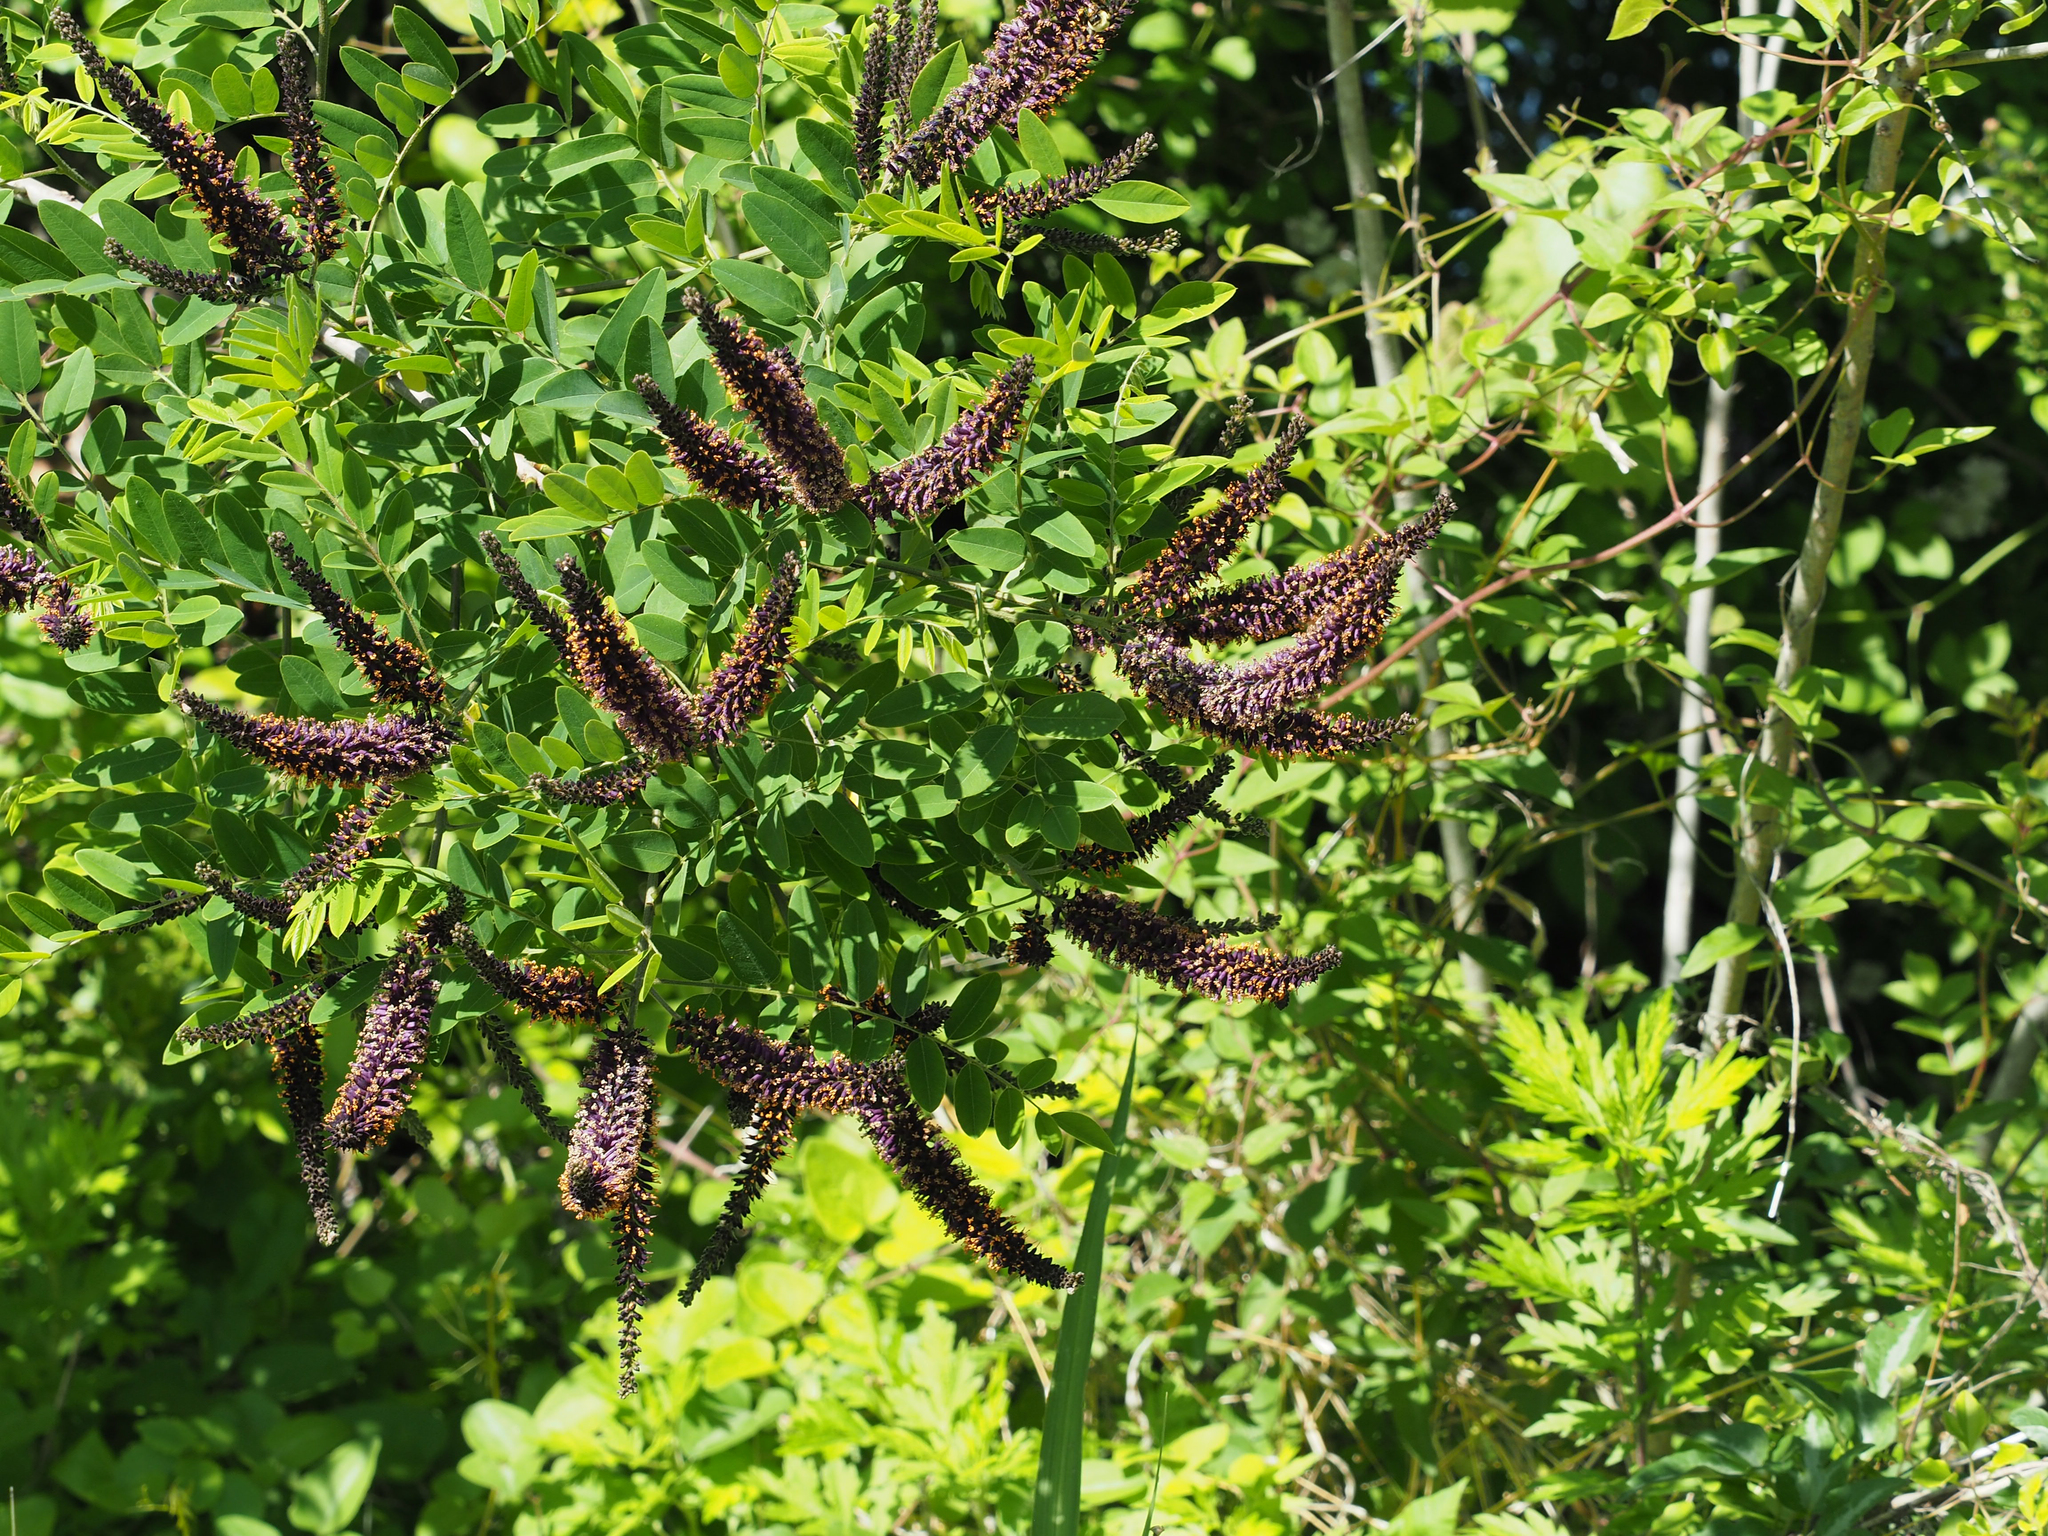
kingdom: Plantae
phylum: Tracheophyta
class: Magnoliopsida
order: Fabales
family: Fabaceae
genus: Amorpha
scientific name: Amorpha fruticosa
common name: False indigo
